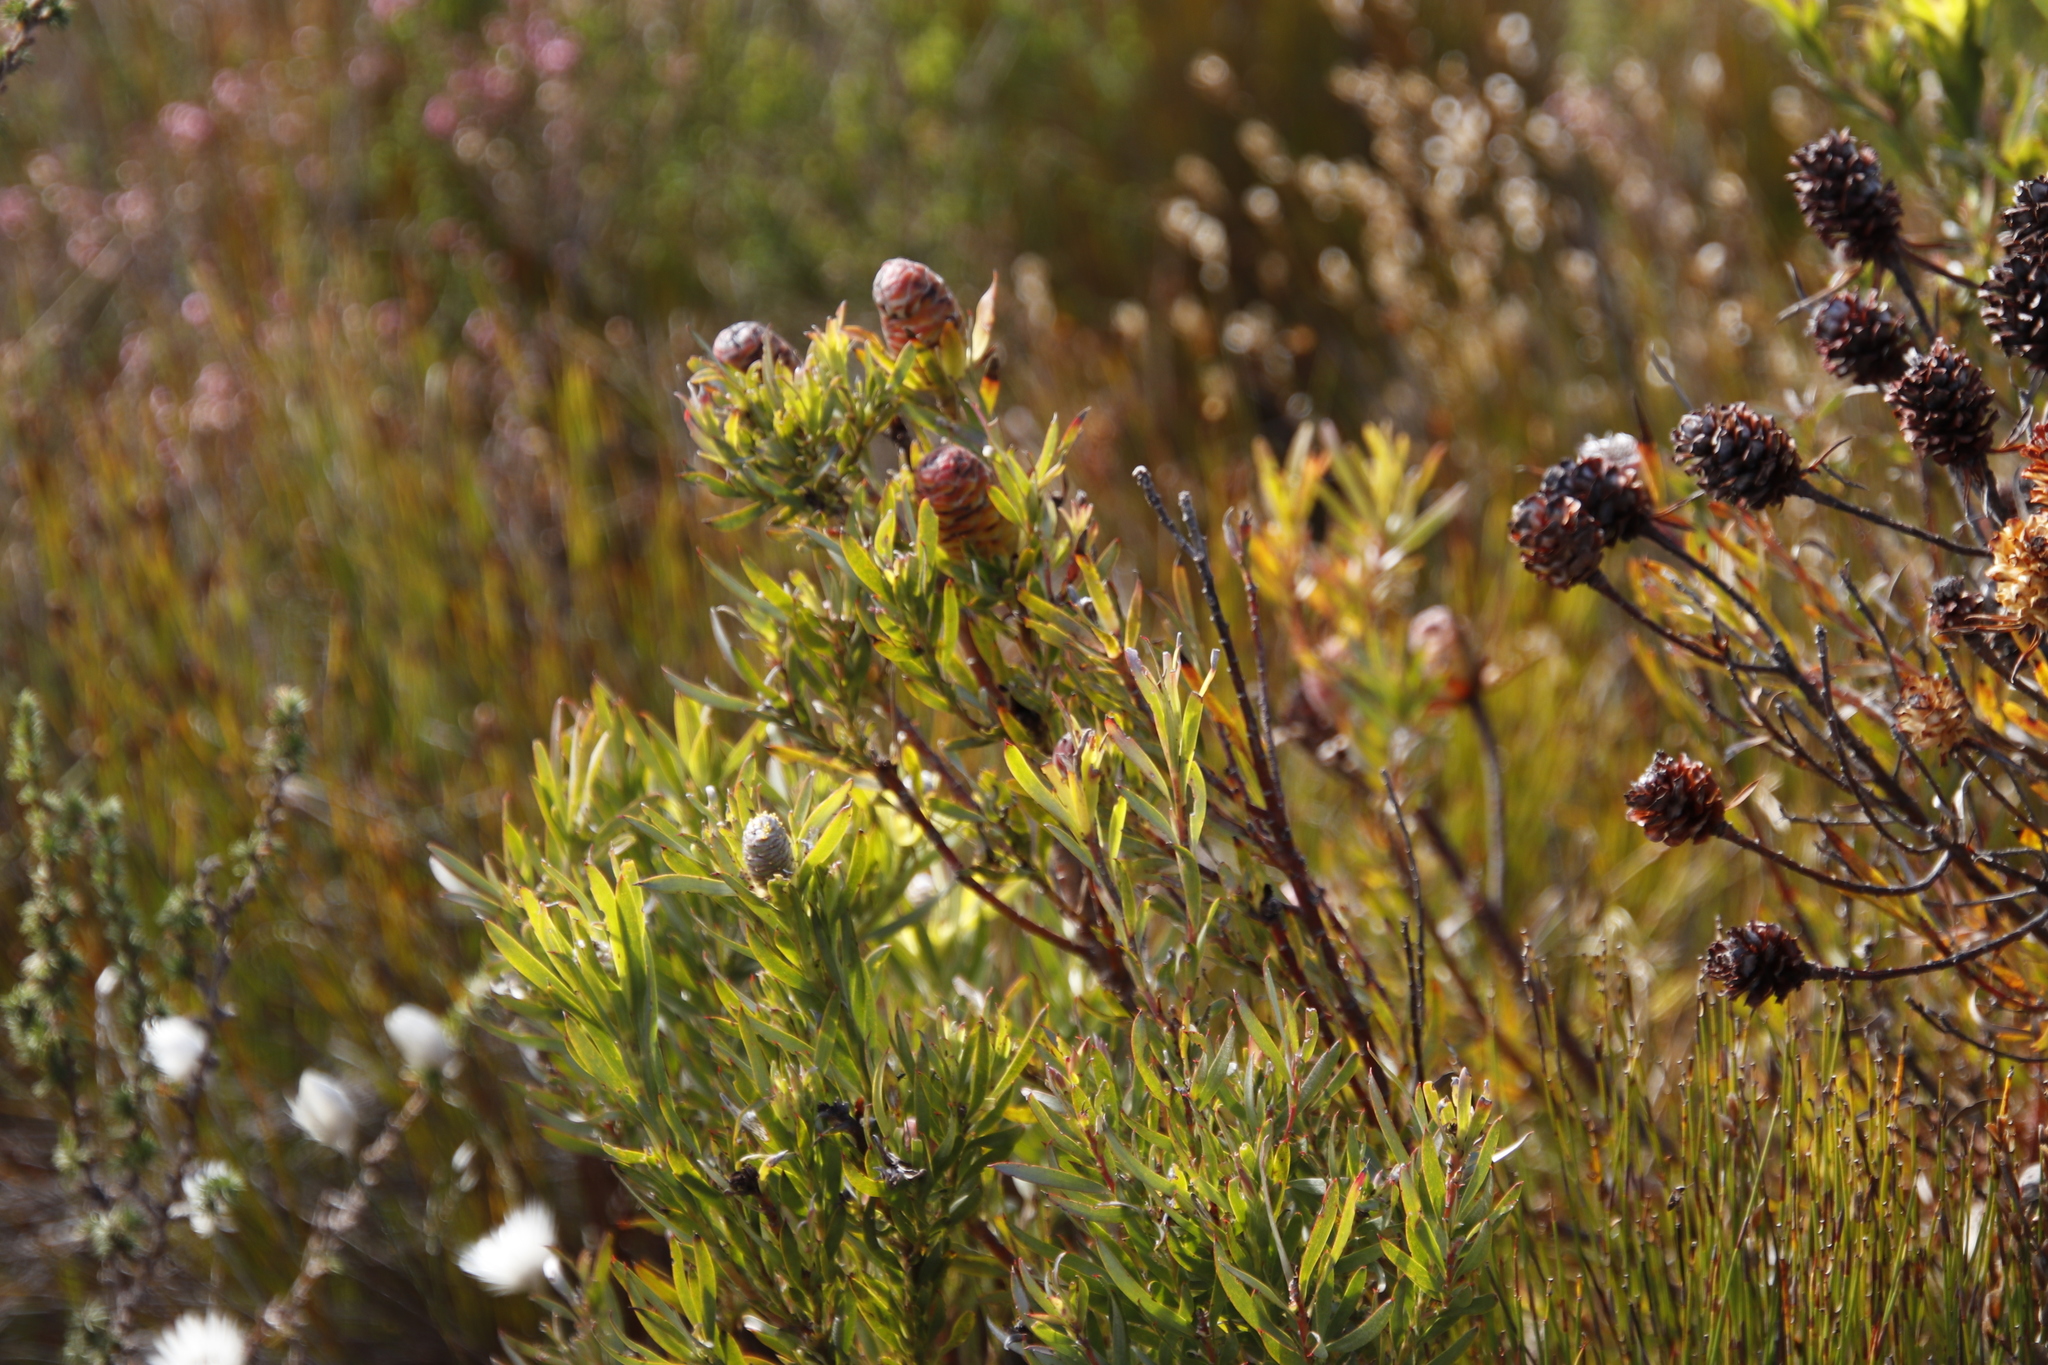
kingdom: Plantae
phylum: Tracheophyta
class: Magnoliopsida
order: Proteales
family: Proteaceae
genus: Leucadendron
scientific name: Leucadendron coniferum
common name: Dune conebush
